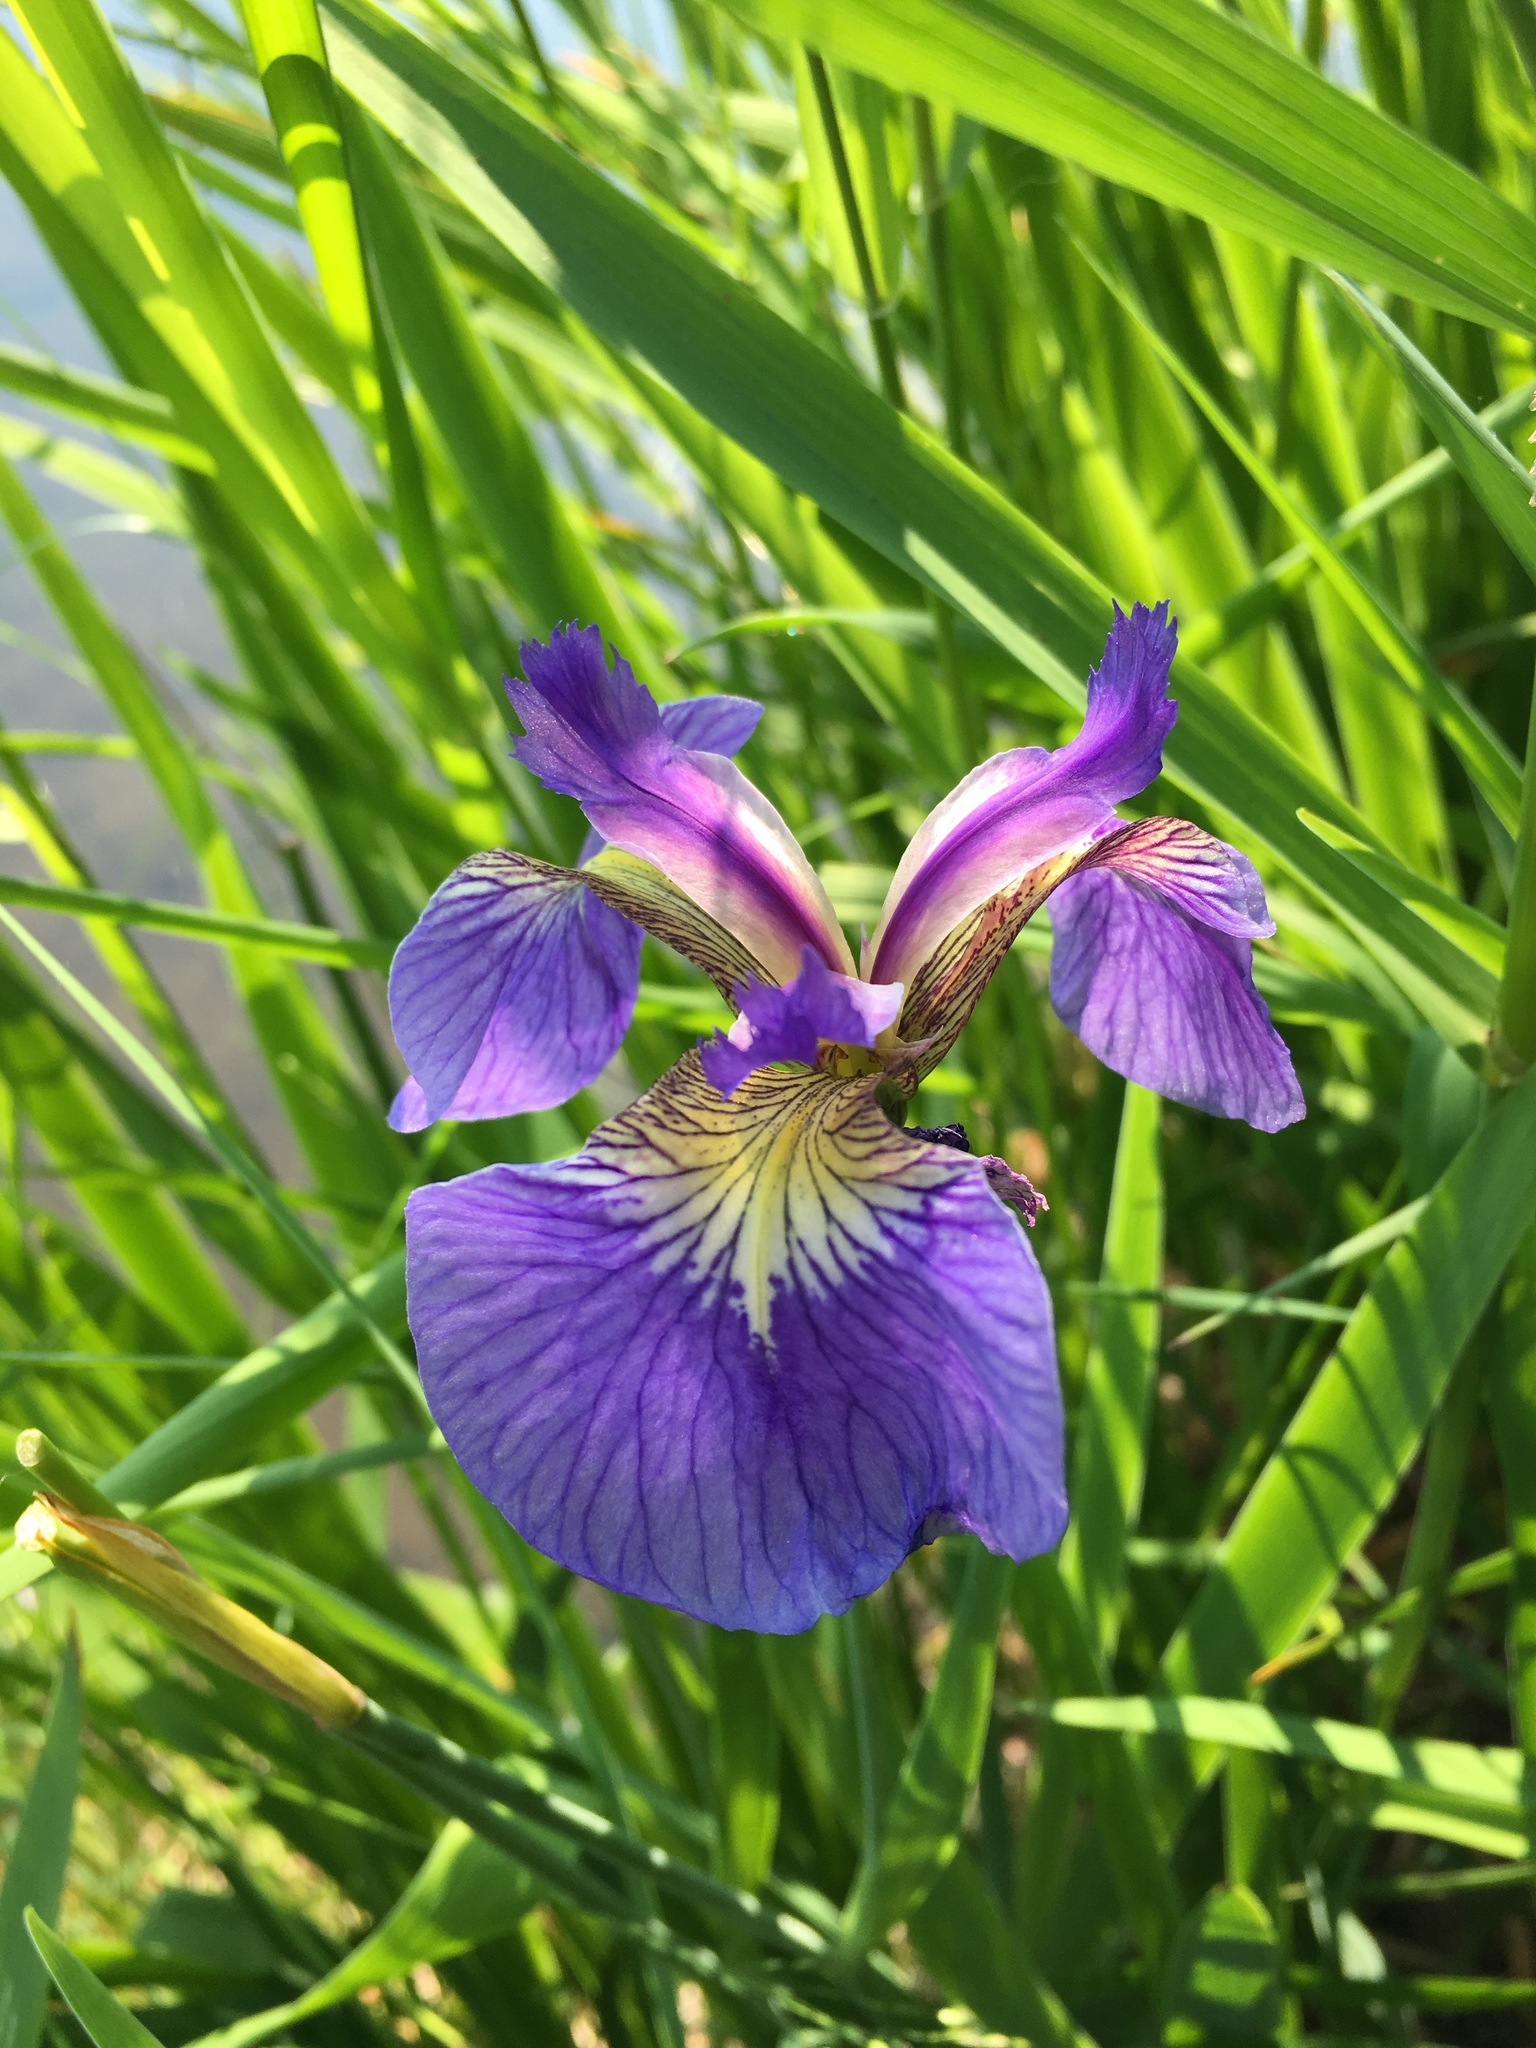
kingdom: Plantae
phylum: Tracheophyta
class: Liliopsida
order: Asparagales
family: Iridaceae
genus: Iris
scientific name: Iris setosa
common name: Arctic blue flag
